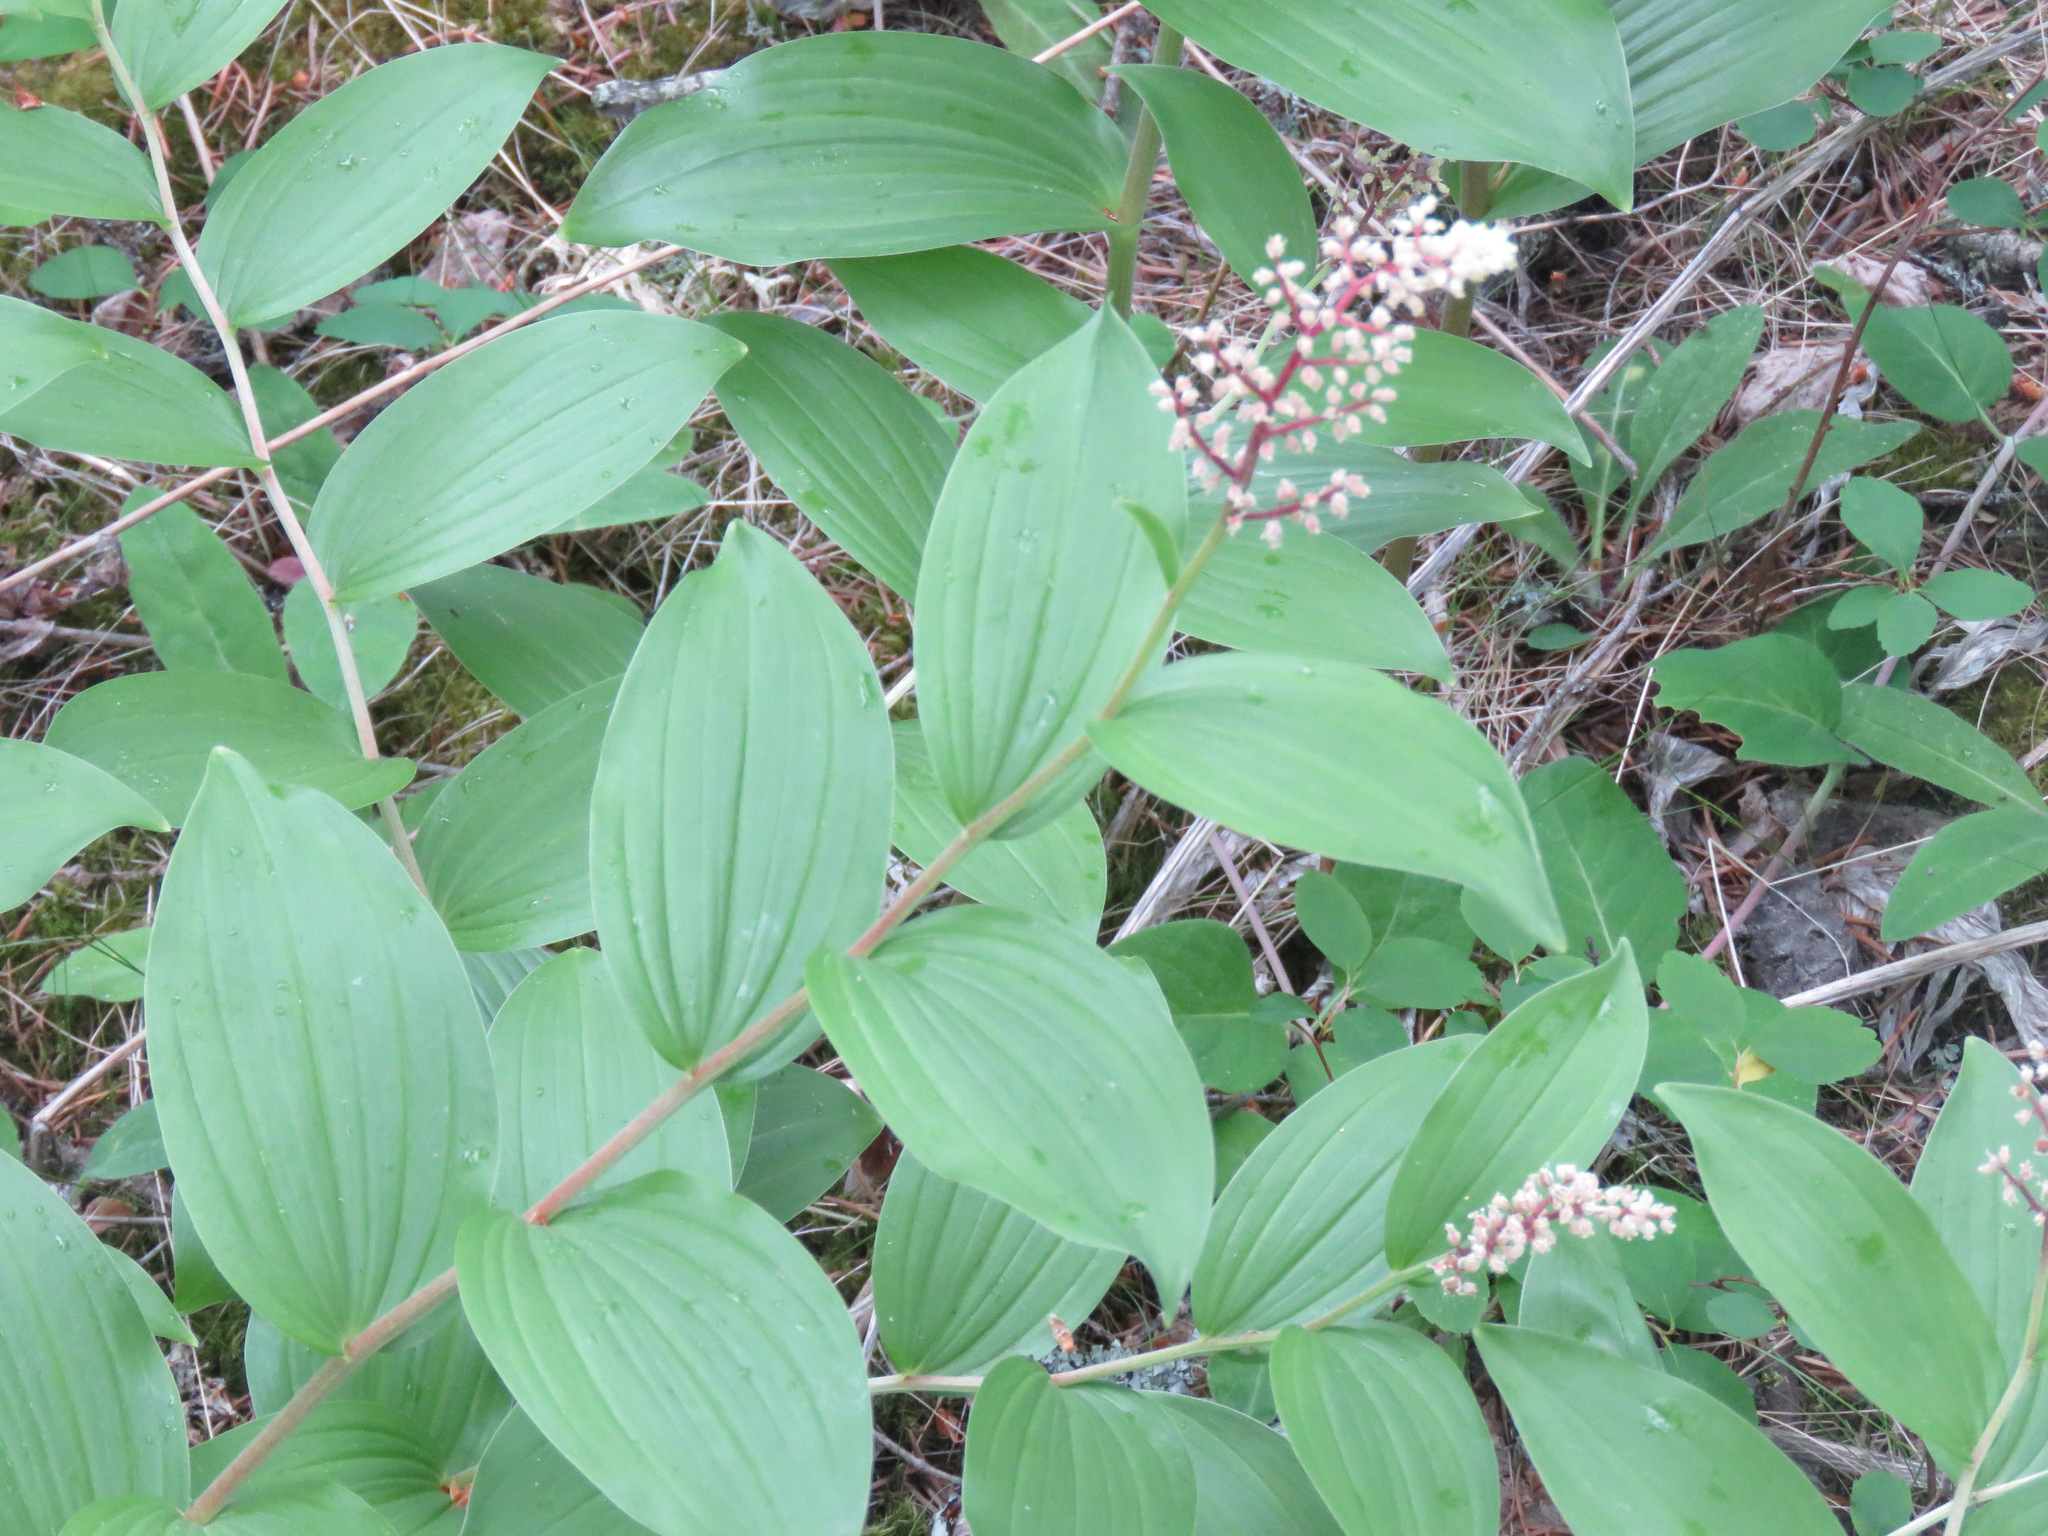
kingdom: Plantae
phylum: Tracheophyta
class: Liliopsida
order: Asparagales
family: Asparagaceae
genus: Maianthemum
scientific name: Maianthemum racemosum
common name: False spikenard
